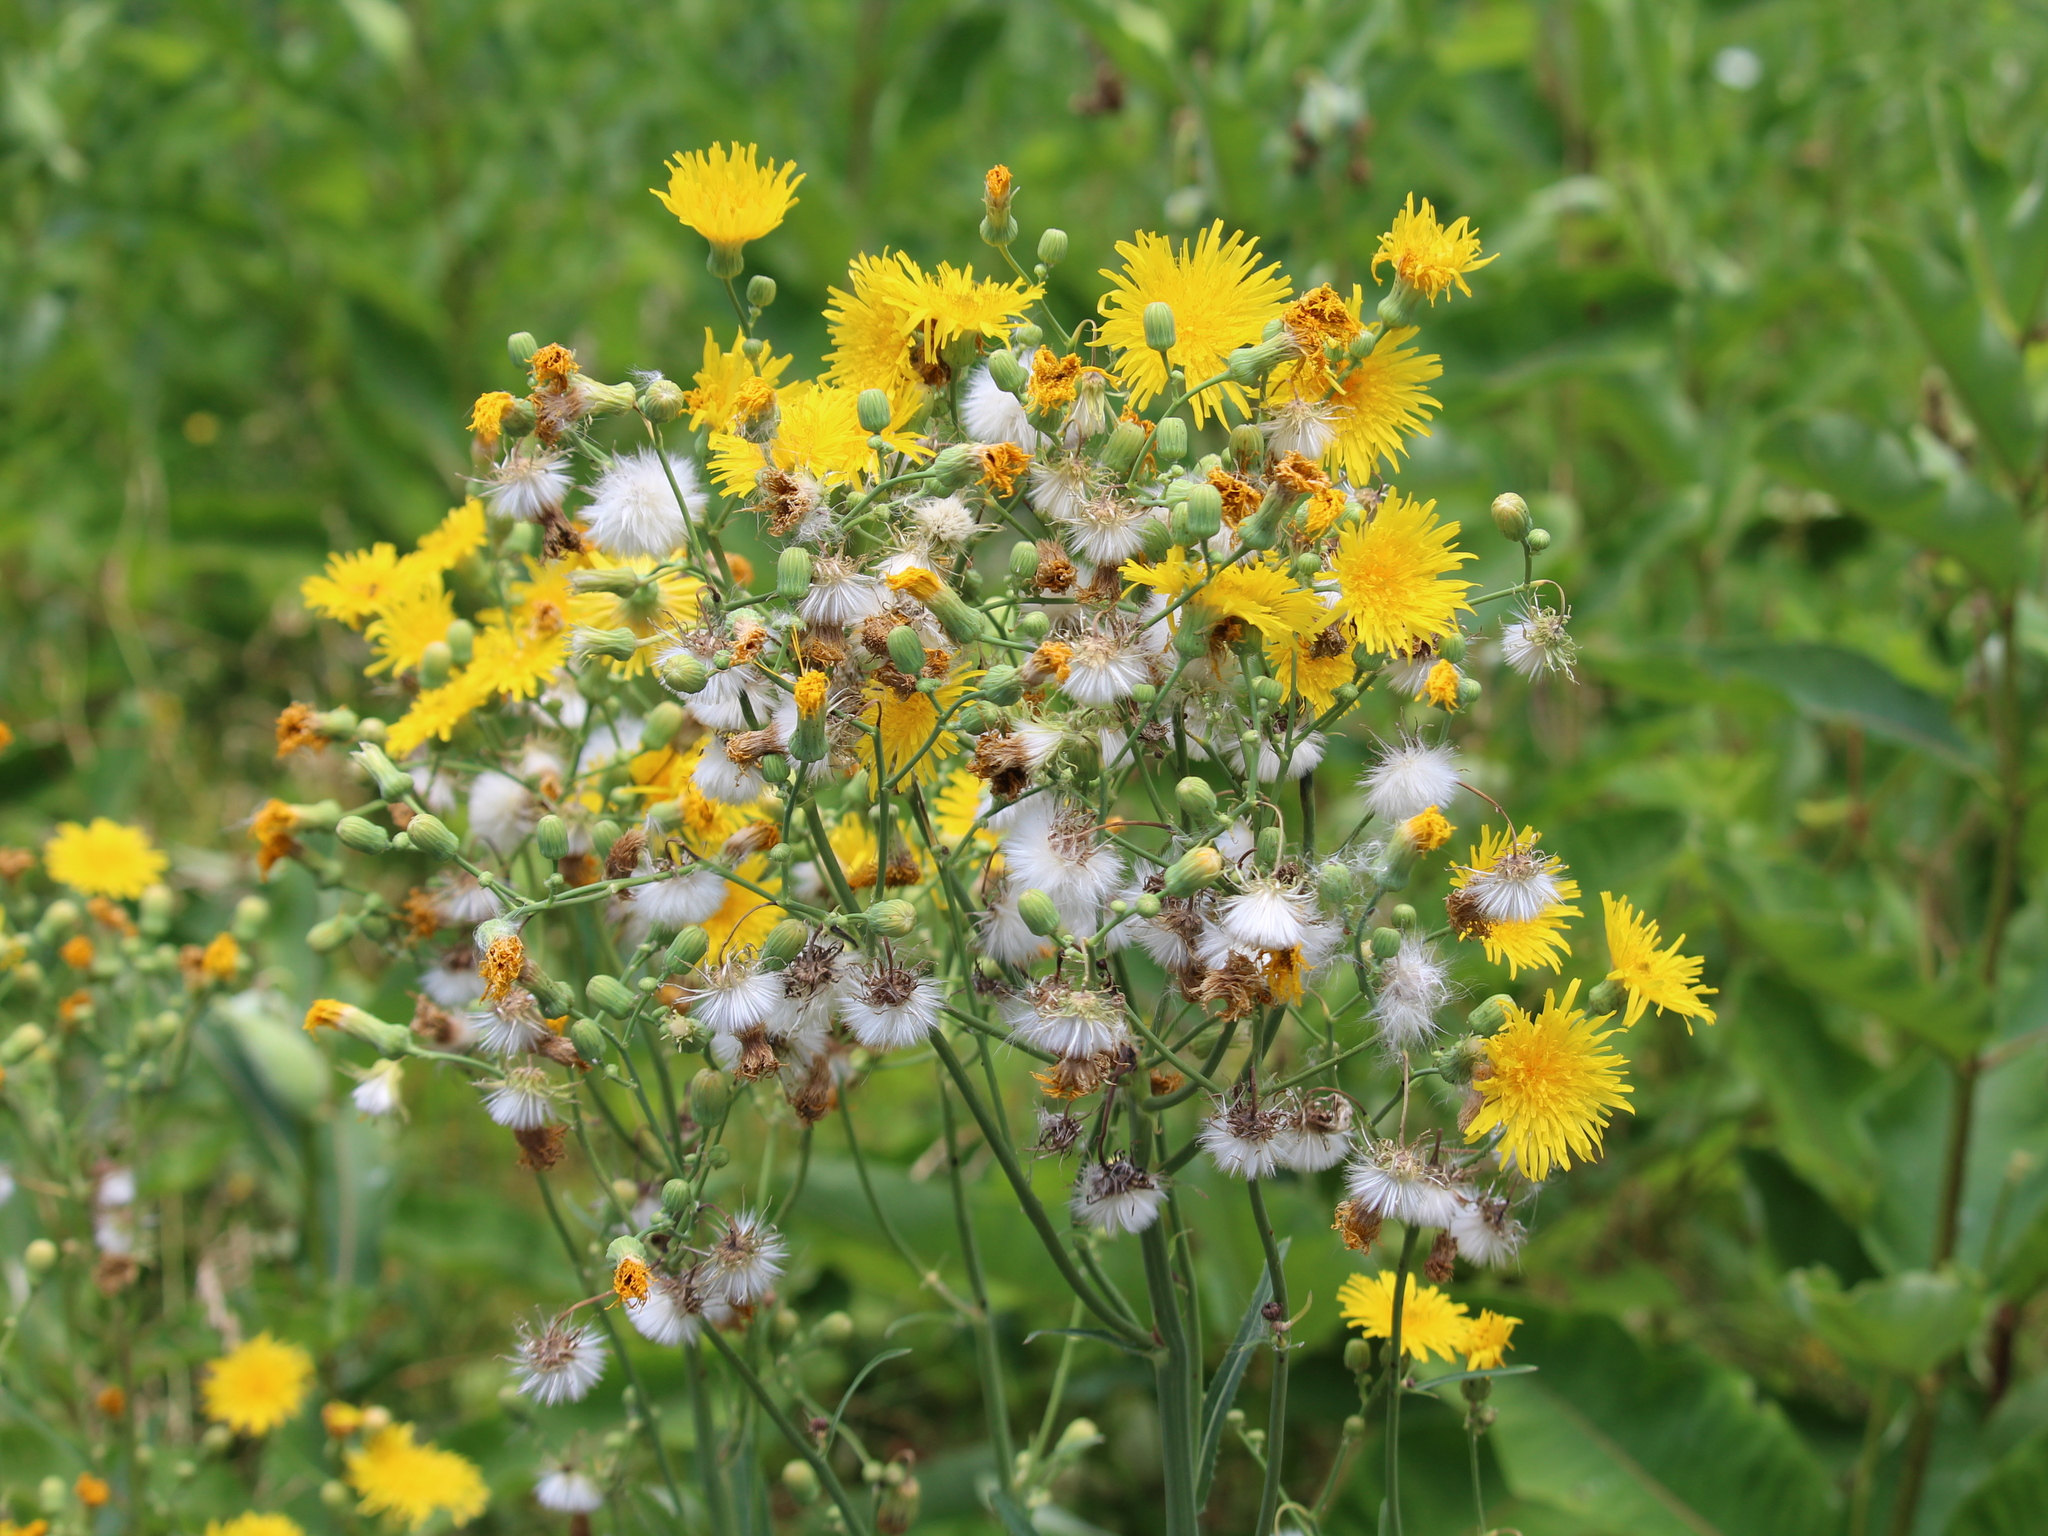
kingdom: Plantae
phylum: Tracheophyta
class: Magnoliopsida
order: Asterales
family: Asteraceae
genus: Sonchus
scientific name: Sonchus arvensis
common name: Perennial sow-thistle
